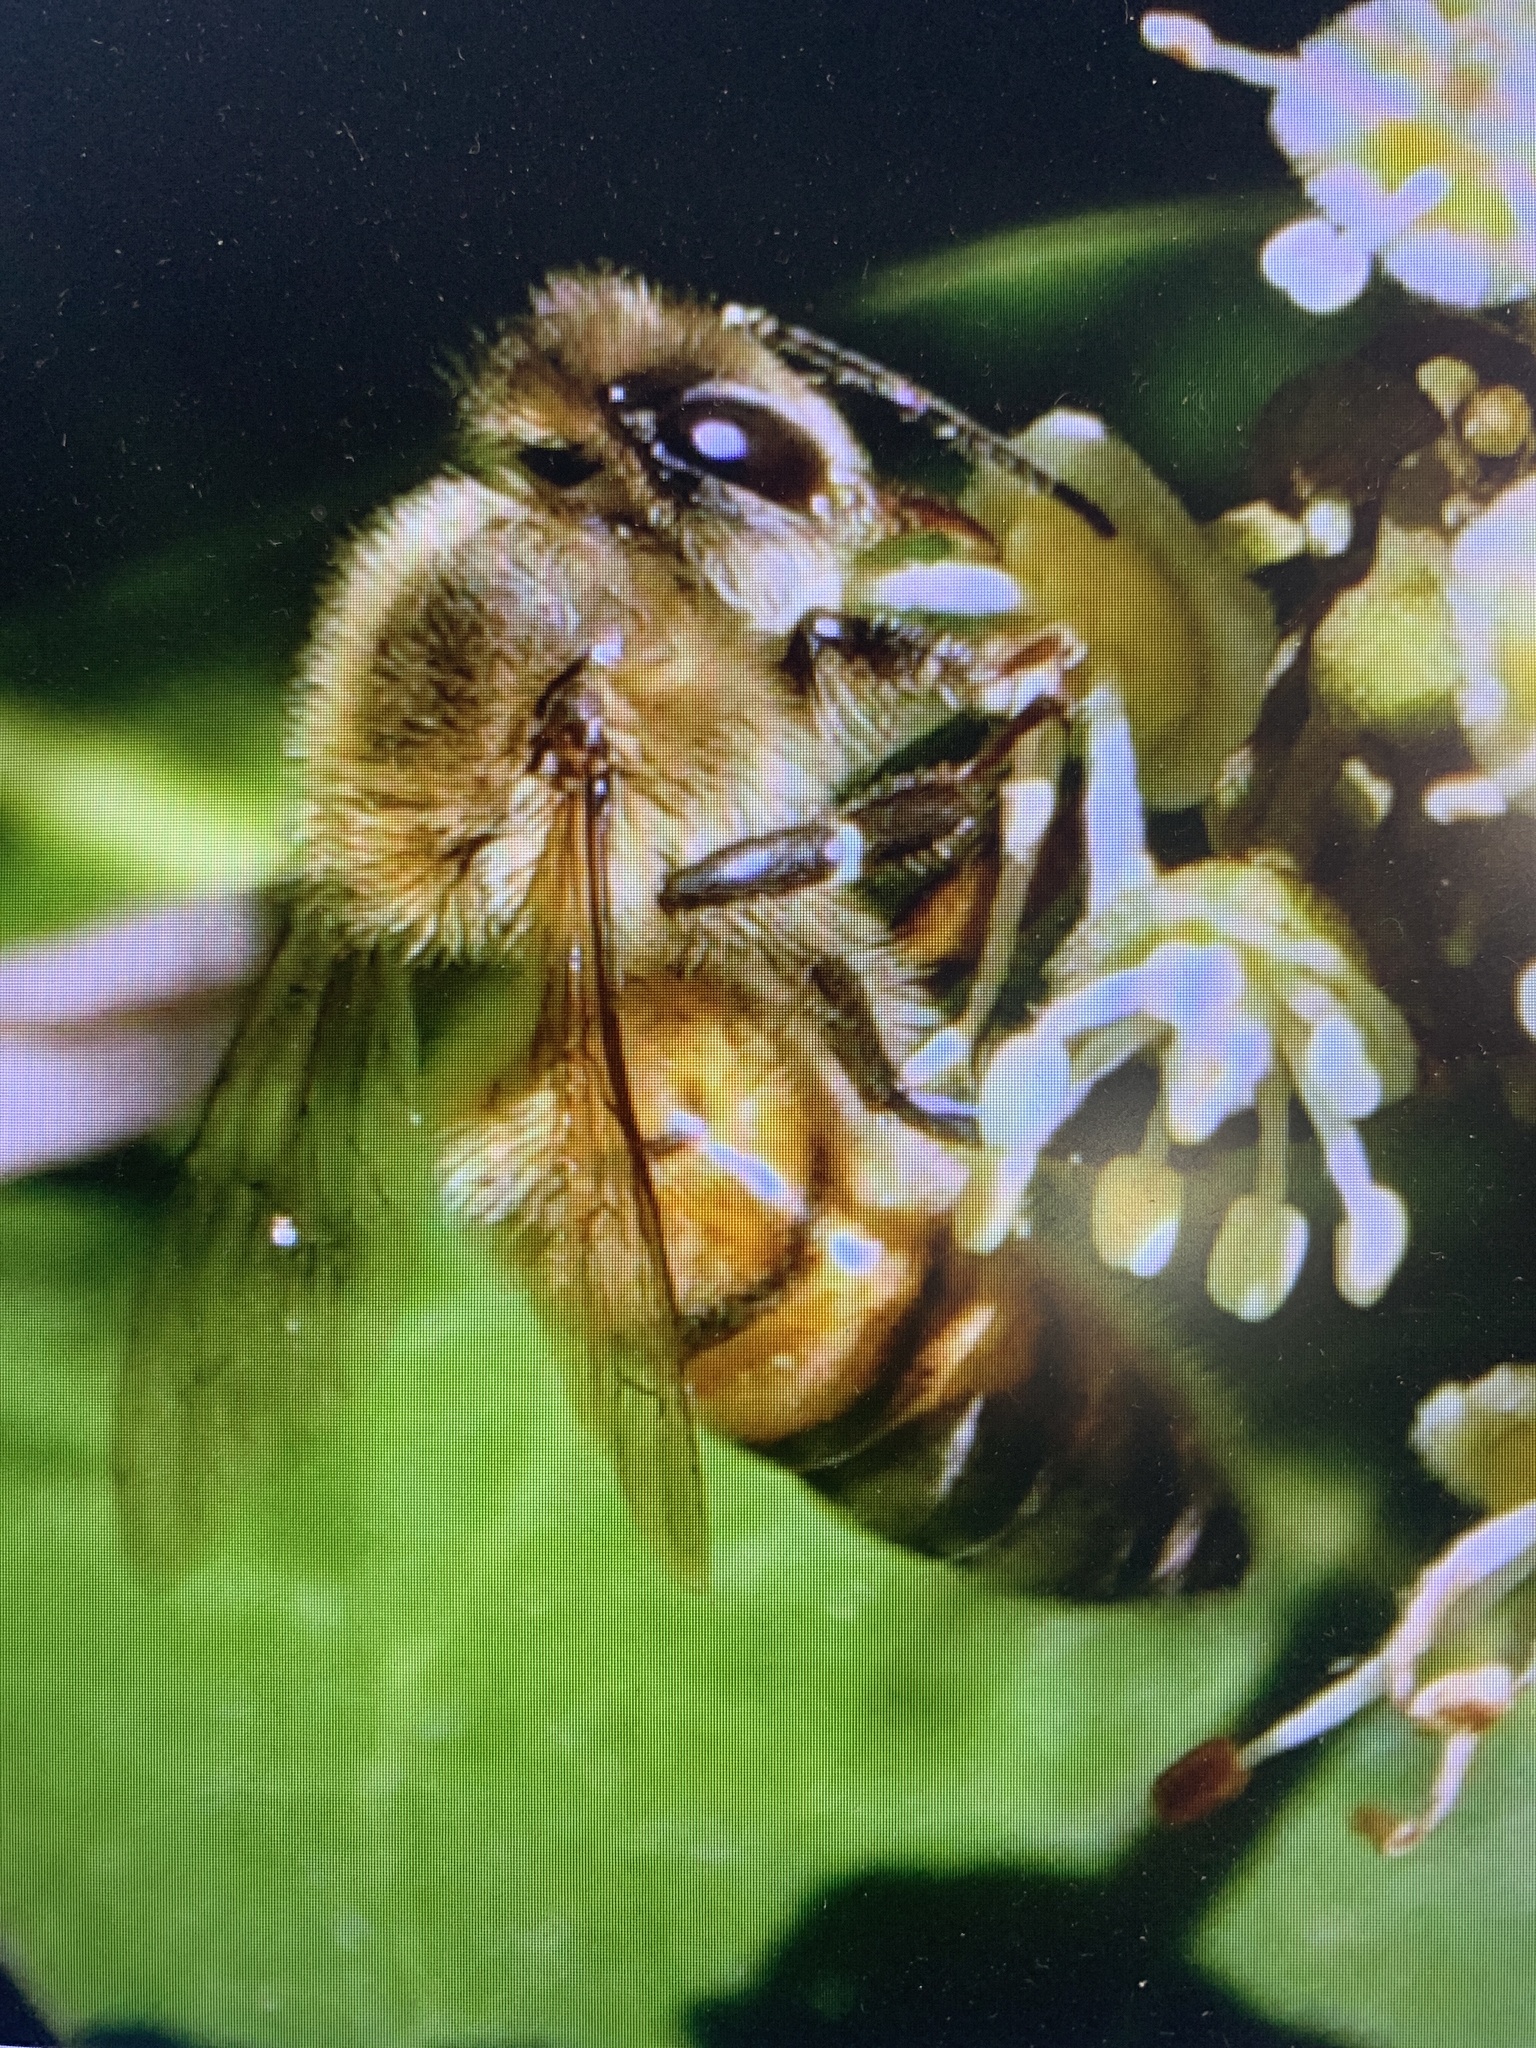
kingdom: Animalia
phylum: Arthropoda
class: Insecta
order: Hymenoptera
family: Apidae
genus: Apis
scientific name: Apis mellifera
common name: Honey bee
